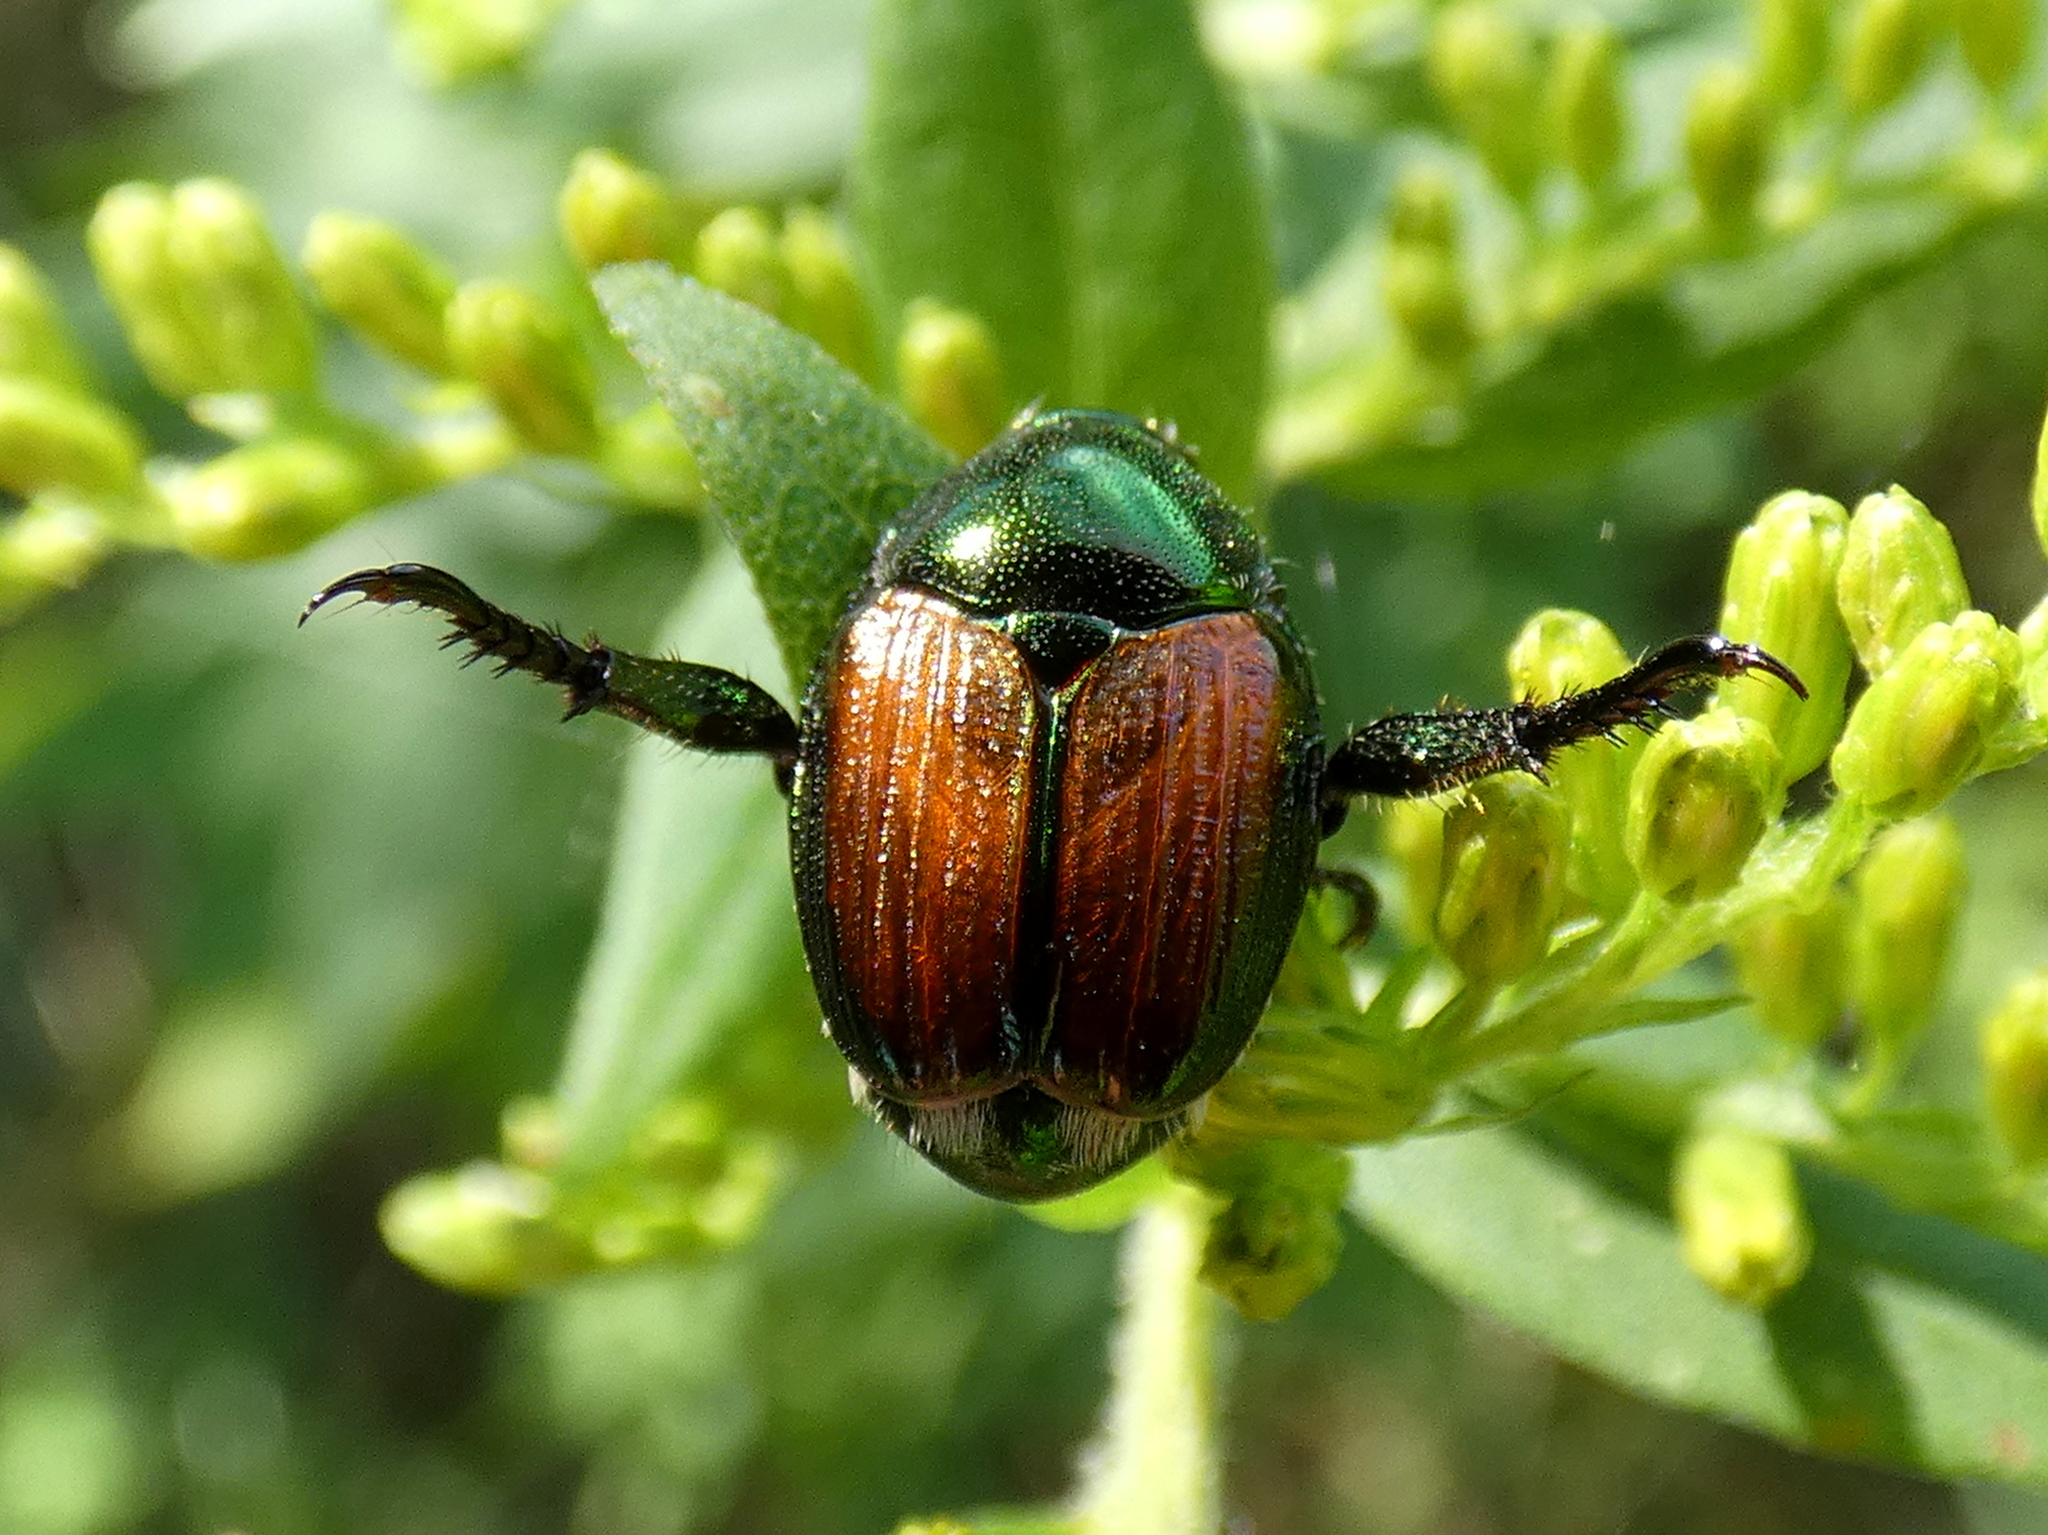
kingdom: Animalia
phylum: Arthropoda
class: Insecta
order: Coleoptera
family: Scarabaeidae
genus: Popillia
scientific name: Popillia japonica
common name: Japanese beetle
